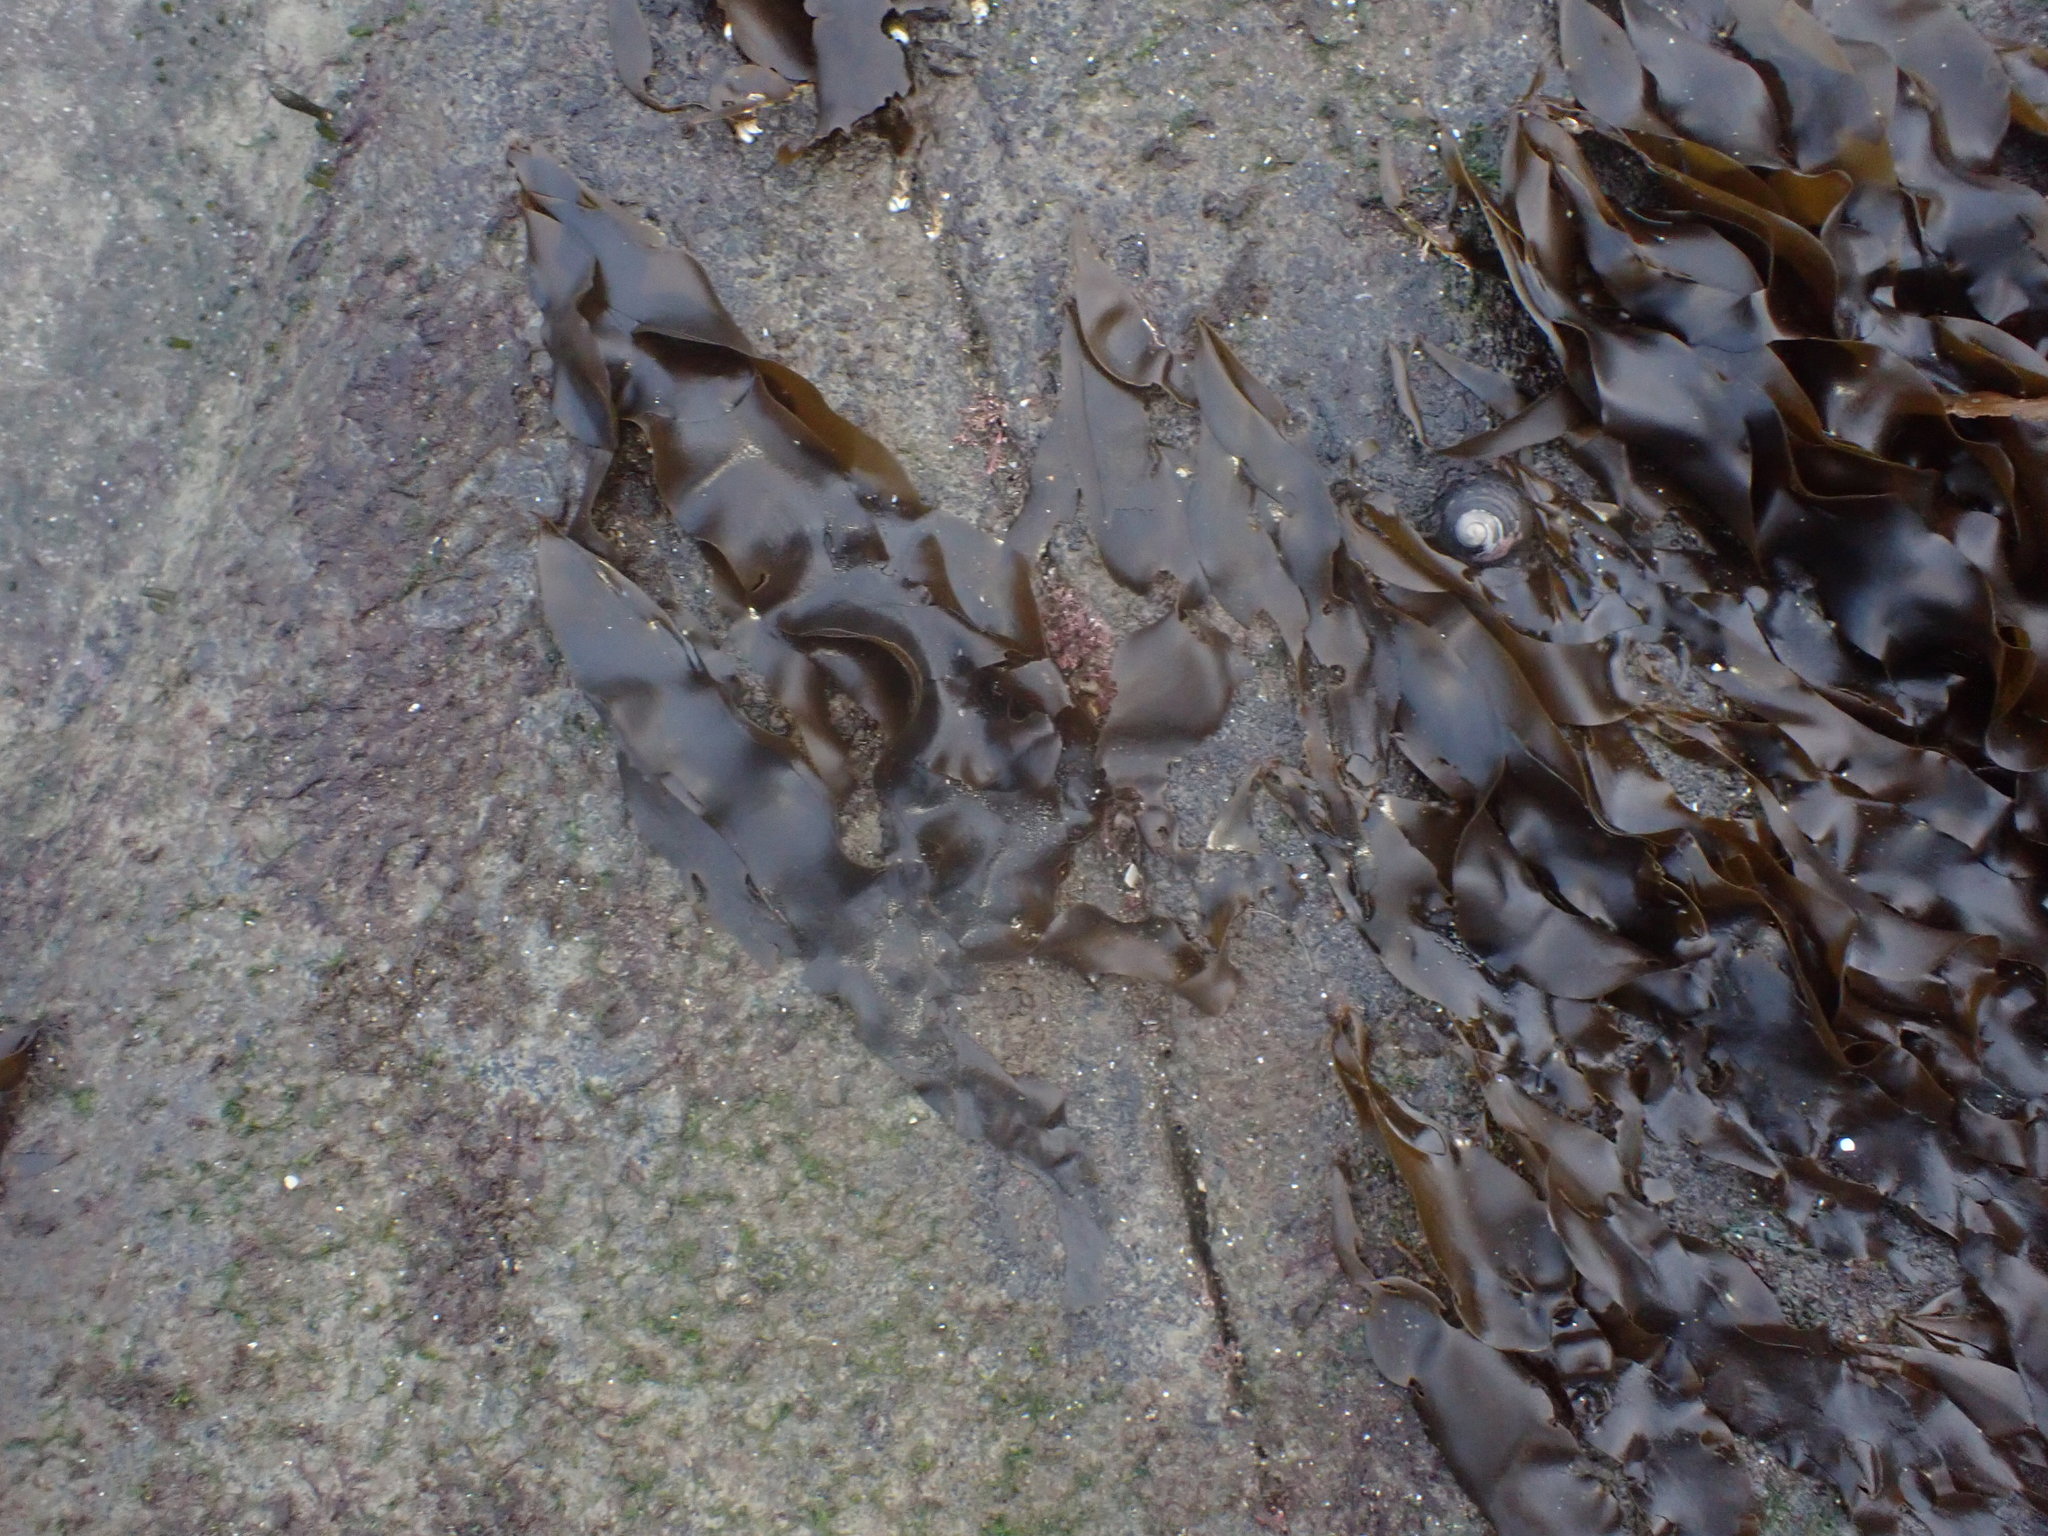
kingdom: Chromista
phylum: Ochrophyta
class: Phaeophyceae
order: Scytosiphonales
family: Scytosiphonaceae
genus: Petalonia
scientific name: Petalonia binghamiae
